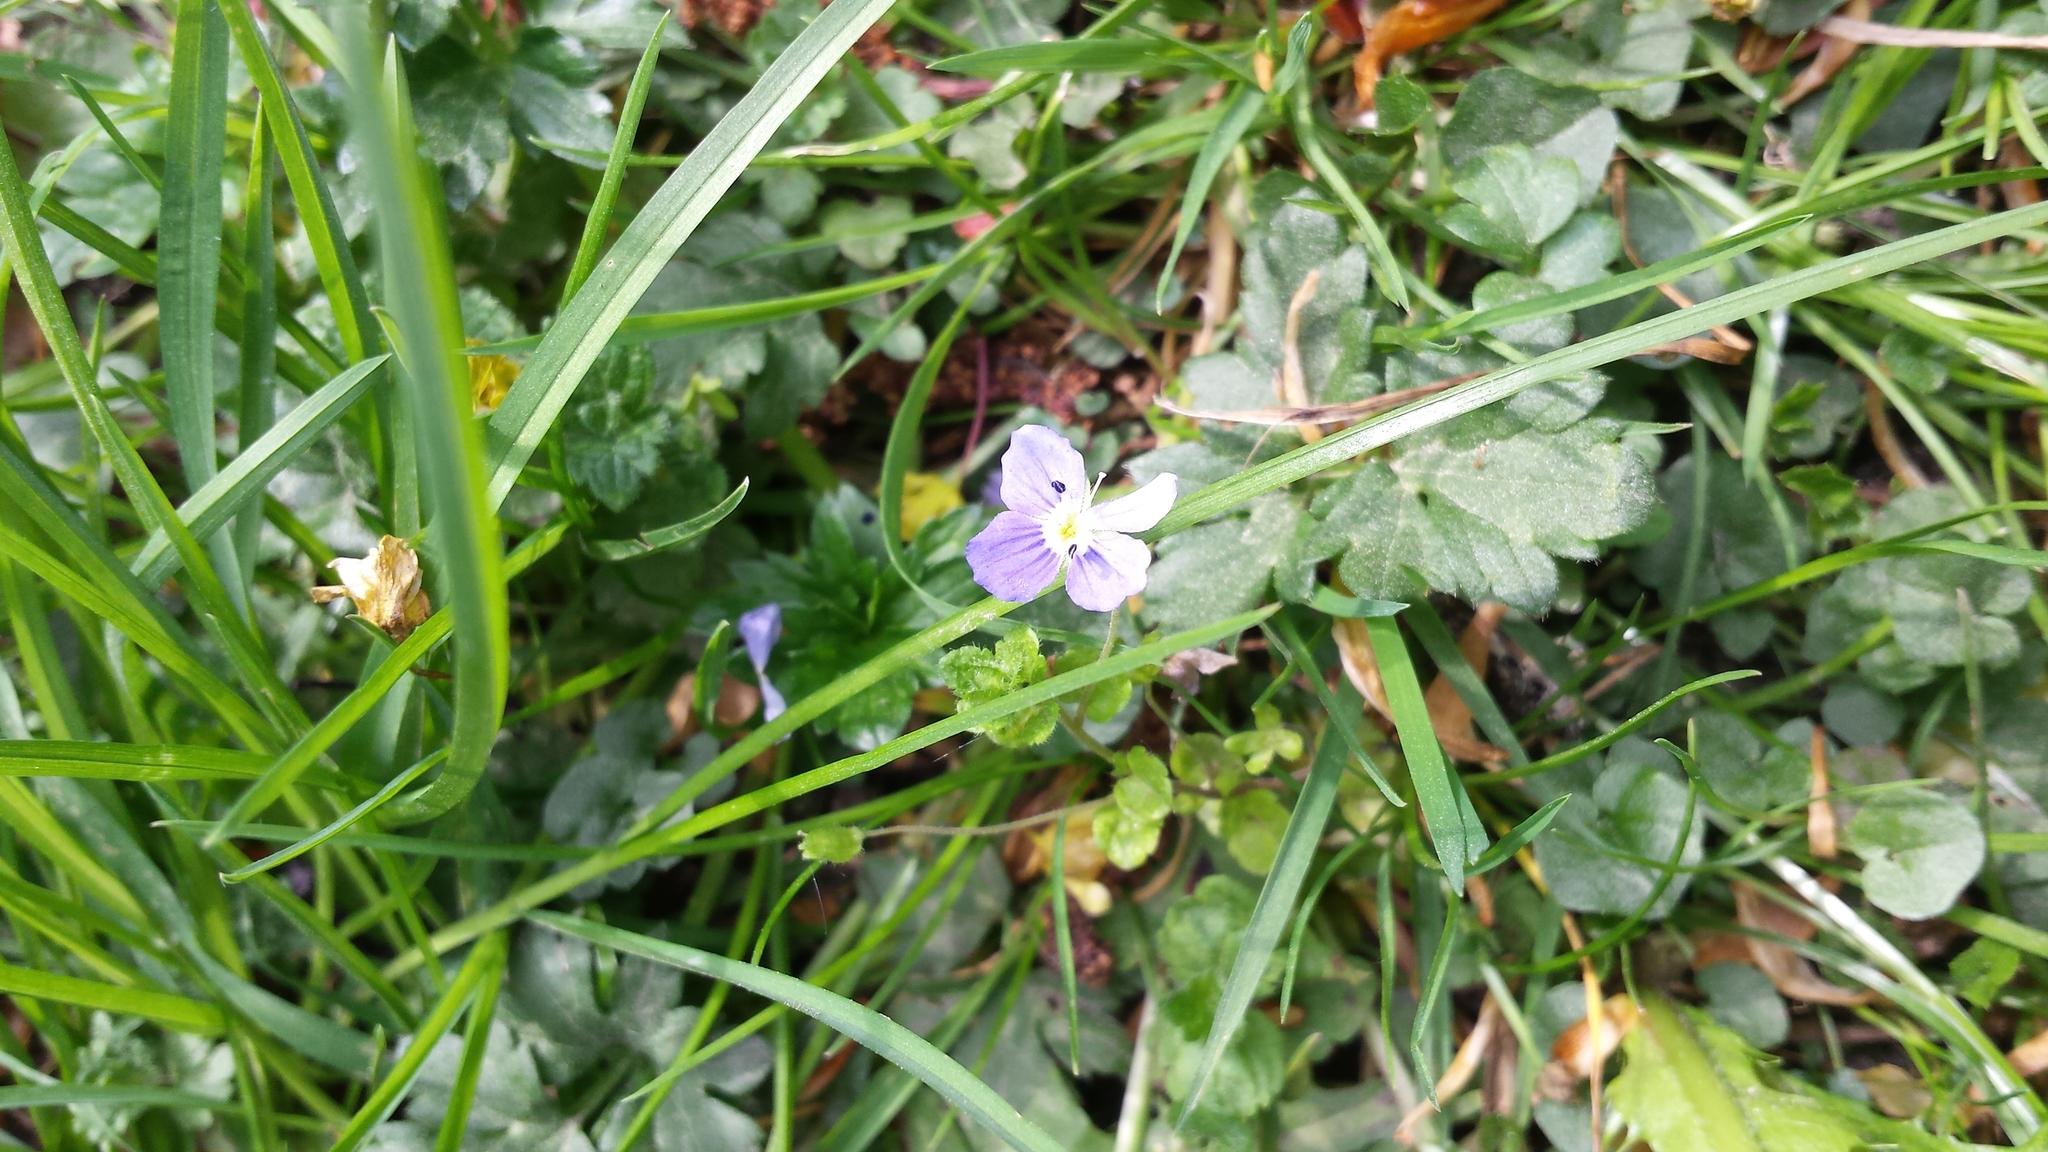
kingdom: Plantae
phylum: Tracheophyta
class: Magnoliopsida
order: Lamiales
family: Plantaginaceae
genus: Veronica
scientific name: Veronica filiformis
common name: Slender speedwell
